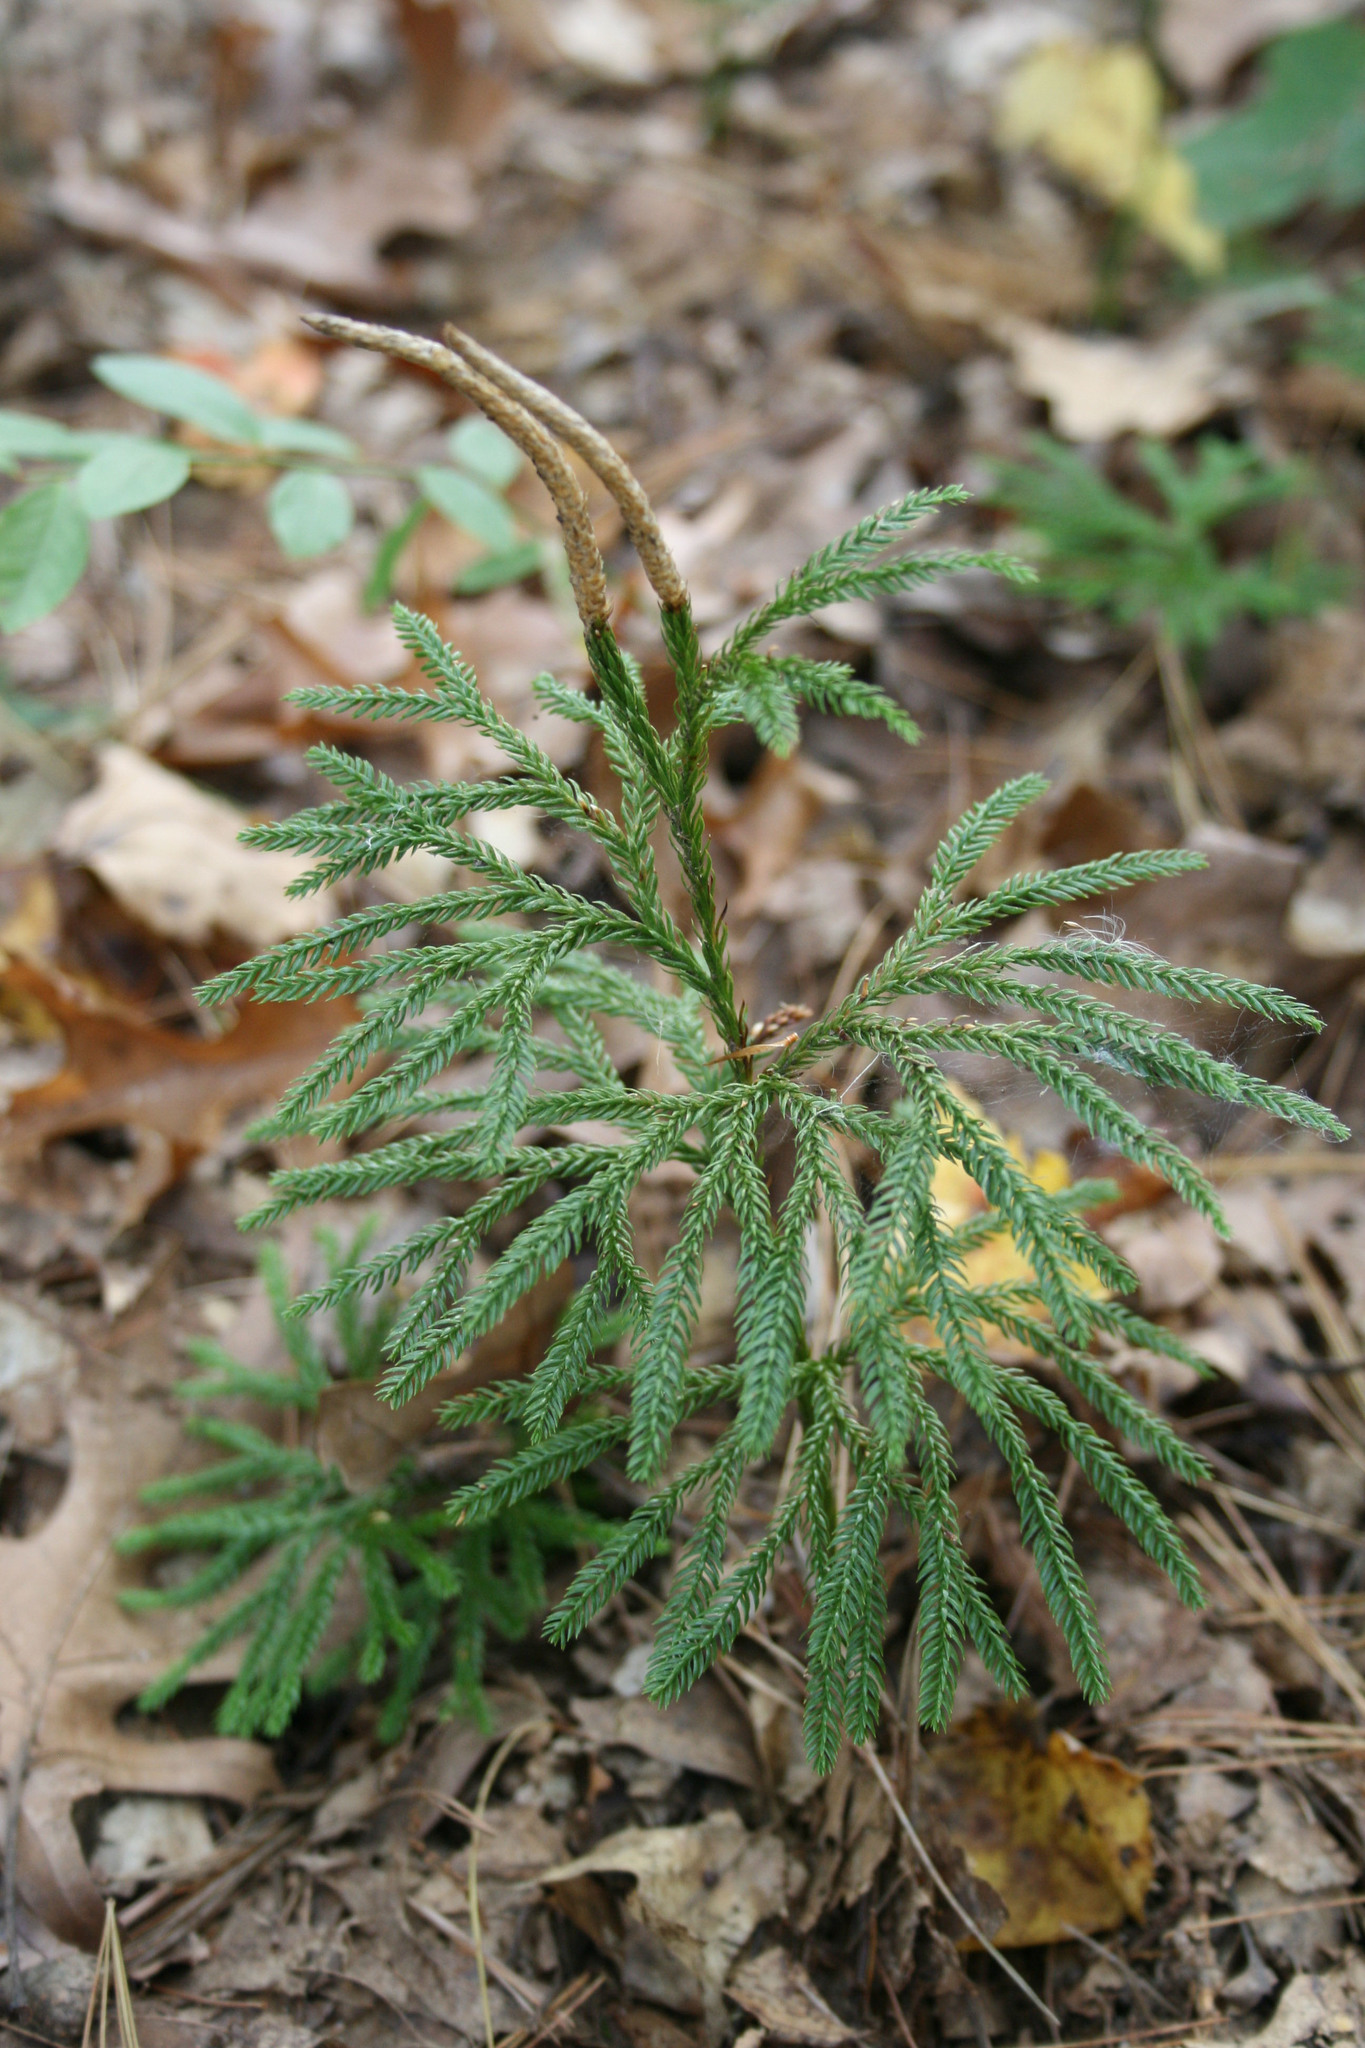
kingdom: Plantae
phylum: Tracheophyta
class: Lycopodiopsida
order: Lycopodiales
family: Lycopodiaceae
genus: Dendrolycopodium
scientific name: Dendrolycopodium obscurum
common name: Common ground-pine
